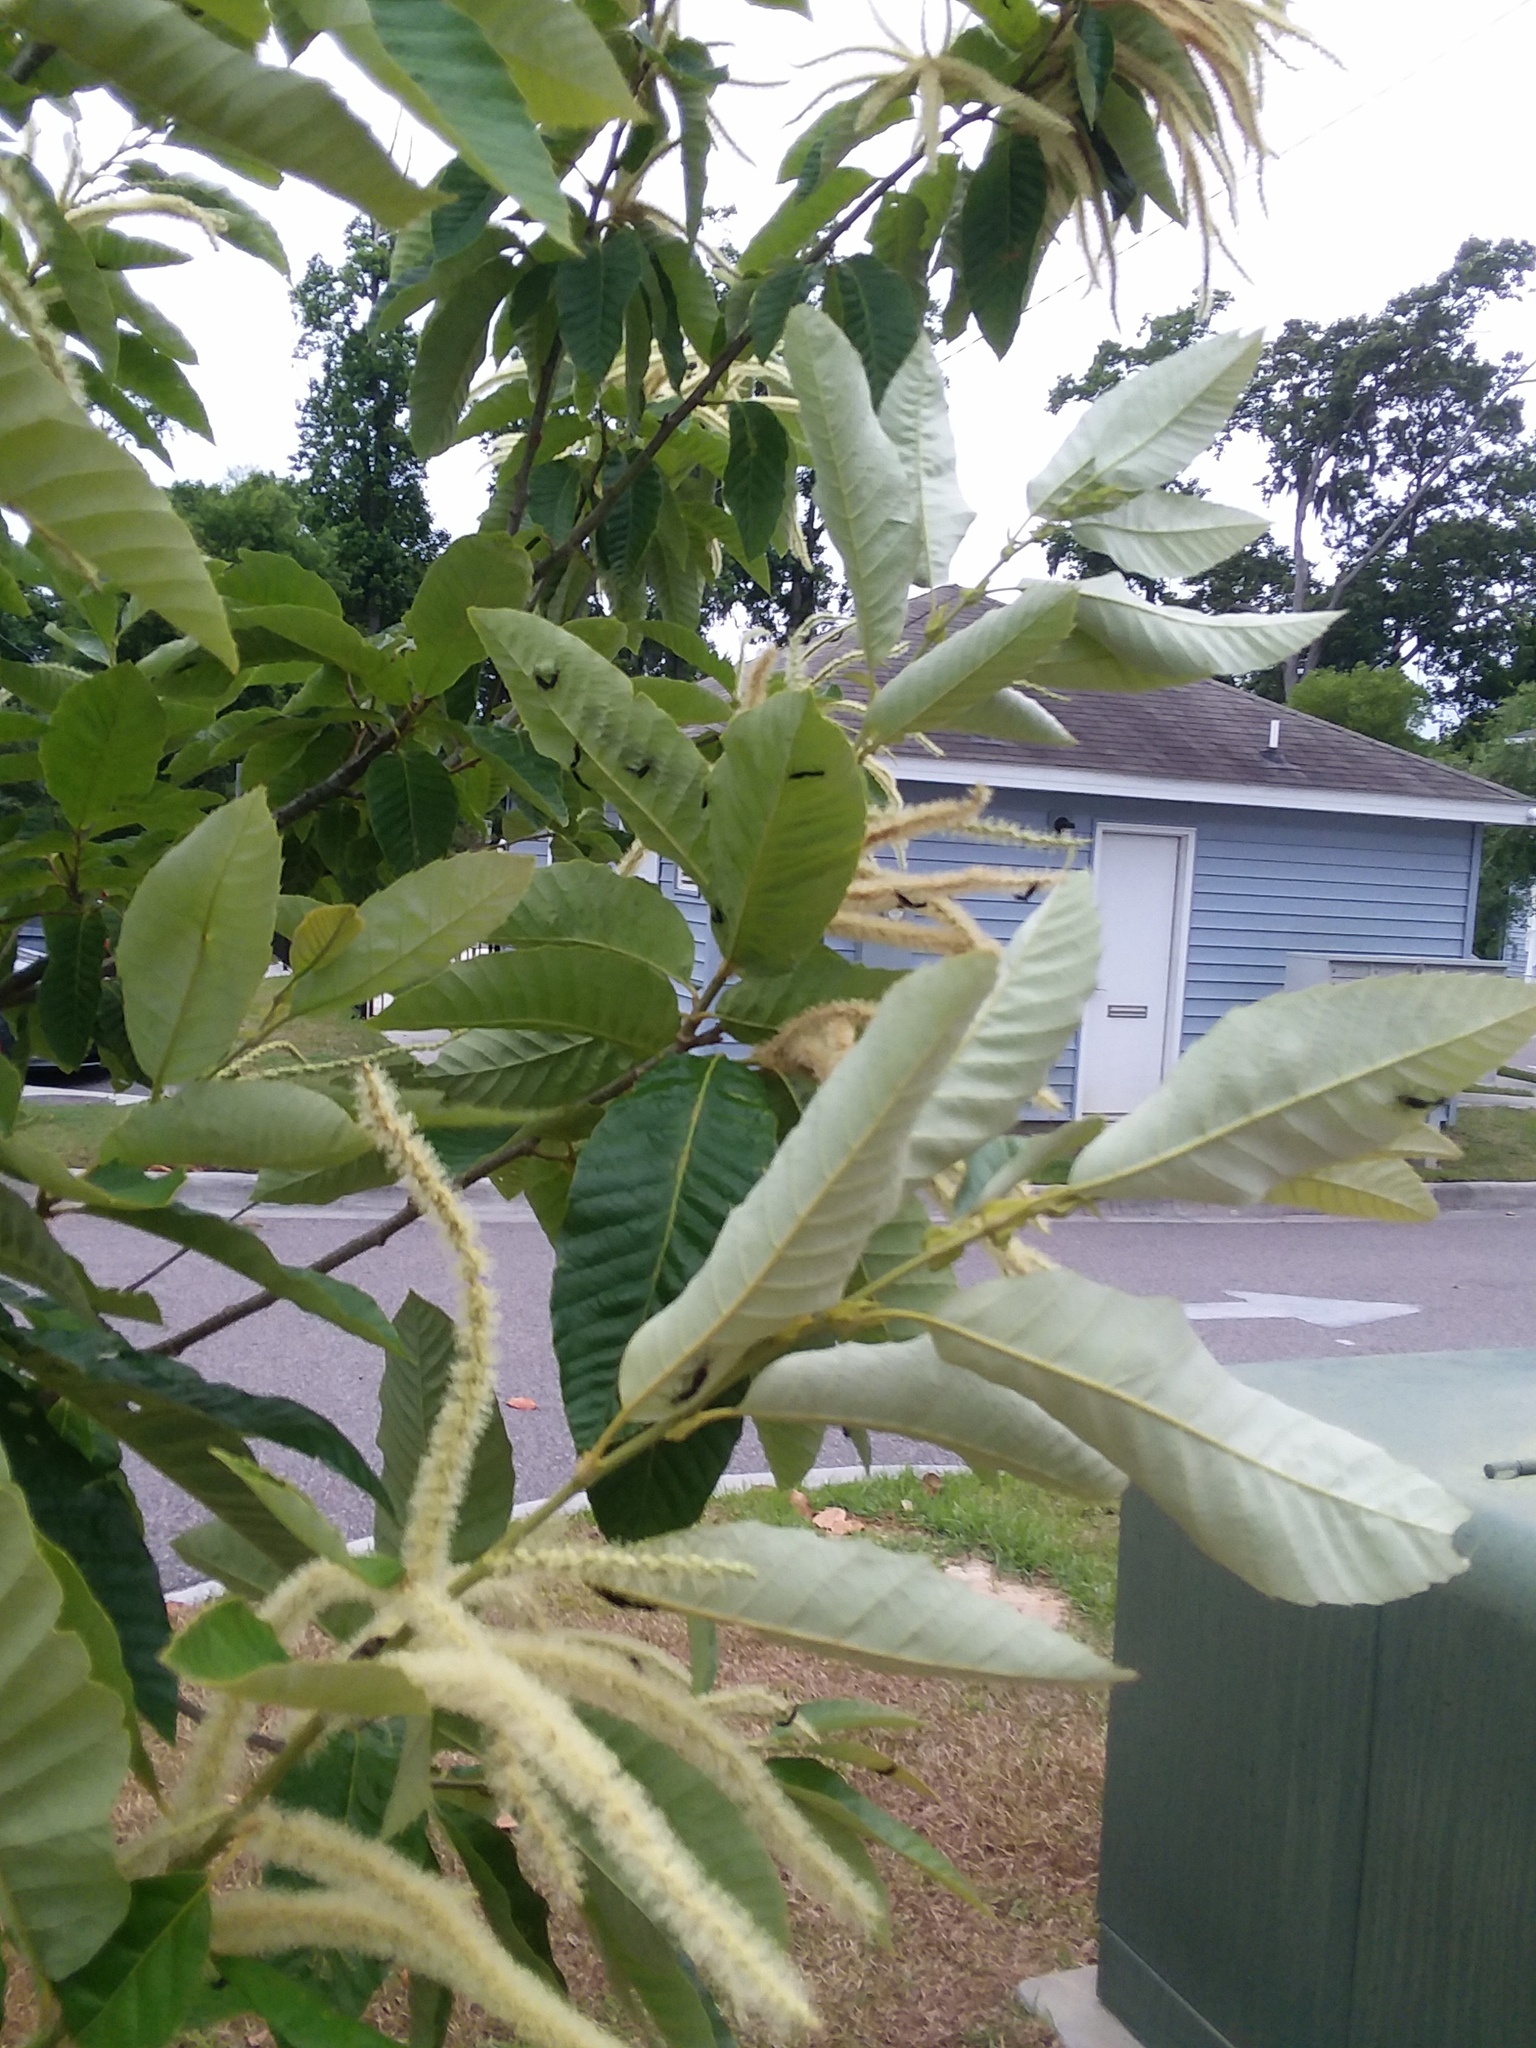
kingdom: Animalia
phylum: Arthropoda
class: Insecta
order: Diptera
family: Bibionidae
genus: Plecia
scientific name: Plecia nearctica
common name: March fly
